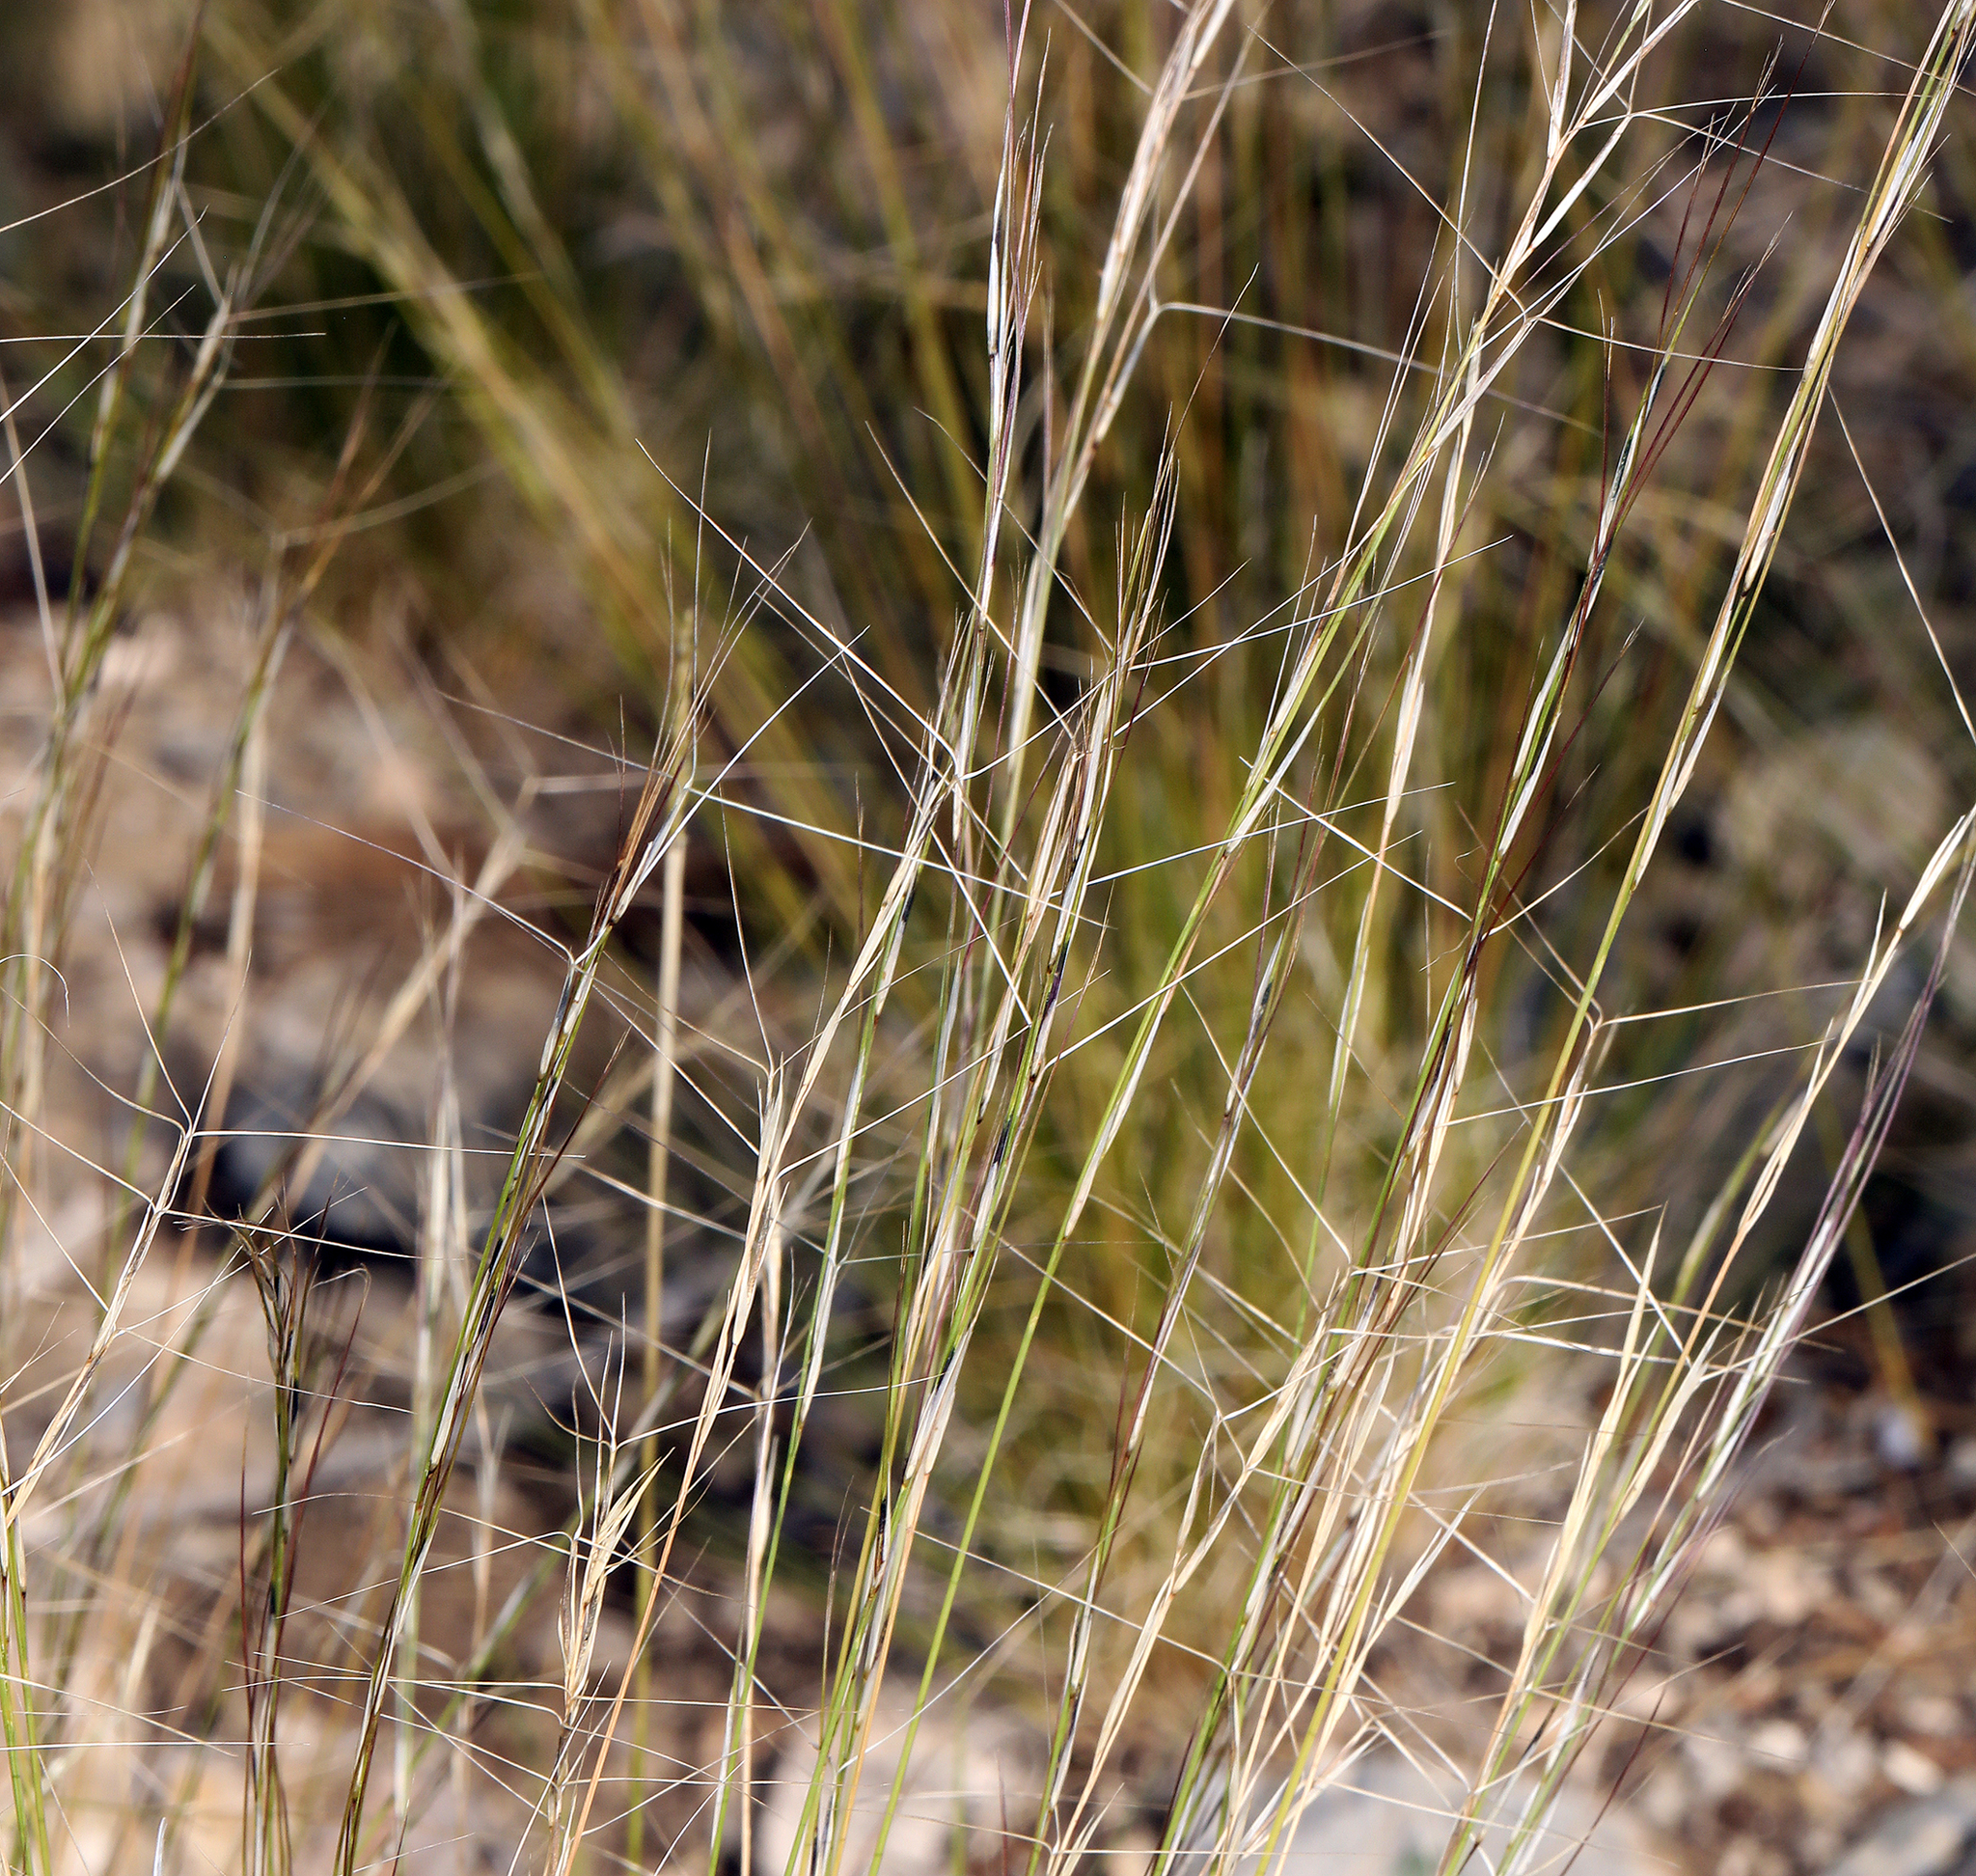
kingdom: Plantae
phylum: Tracheophyta
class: Liliopsida
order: Poales
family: Poaceae
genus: Aristida
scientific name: Aristida purpurea
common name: Purple threeawn
